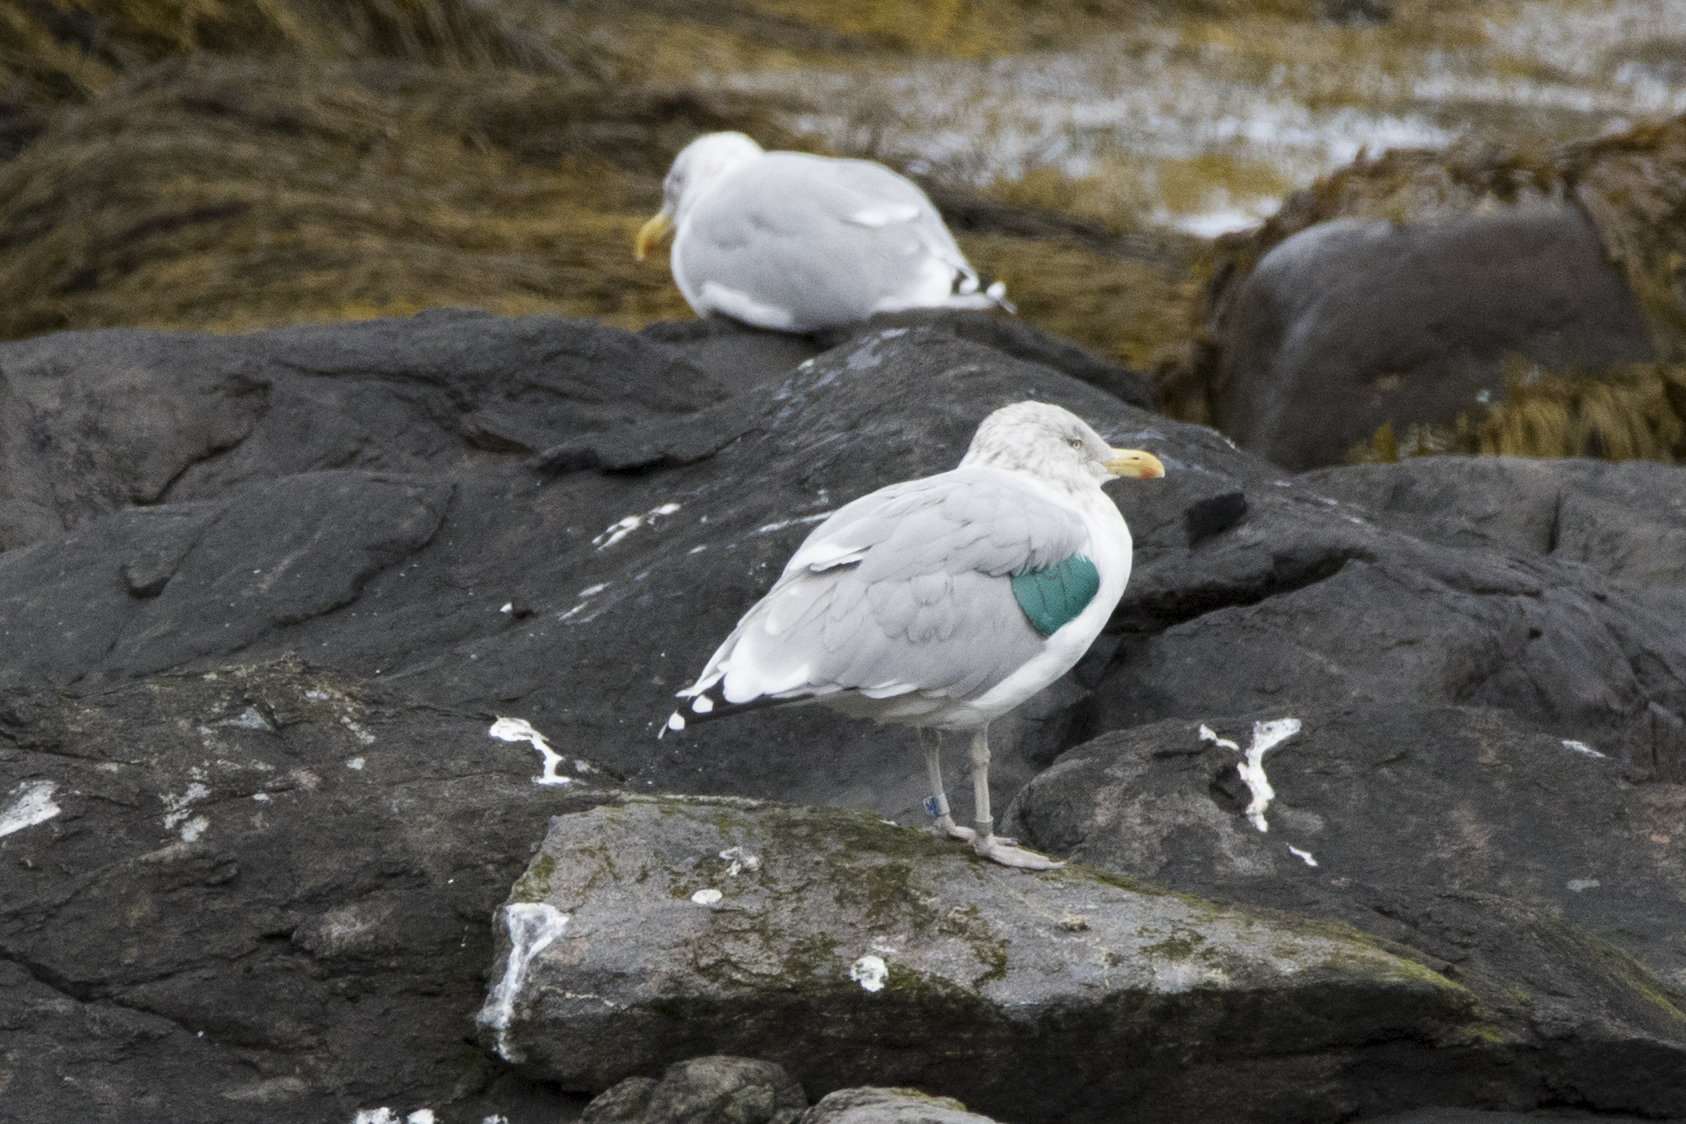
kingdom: Animalia
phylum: Chordata
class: Aves
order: Charadriiformes
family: Laridae
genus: Larus
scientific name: Larus argentatus
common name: Herring gull
